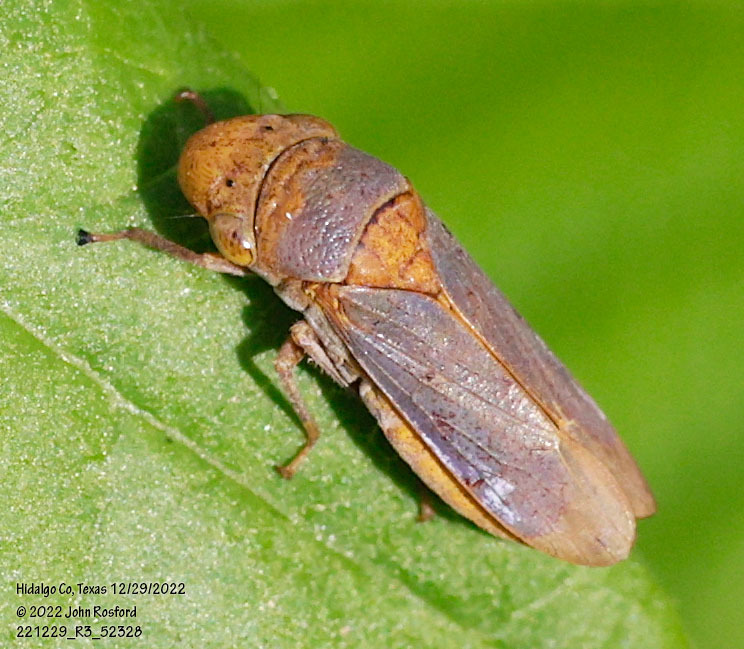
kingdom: Animalia
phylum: Arthropoda
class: Insecta
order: Hemiptera
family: Cicadellidae
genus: Oncometopia
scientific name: Oncometopia hamiltoni
